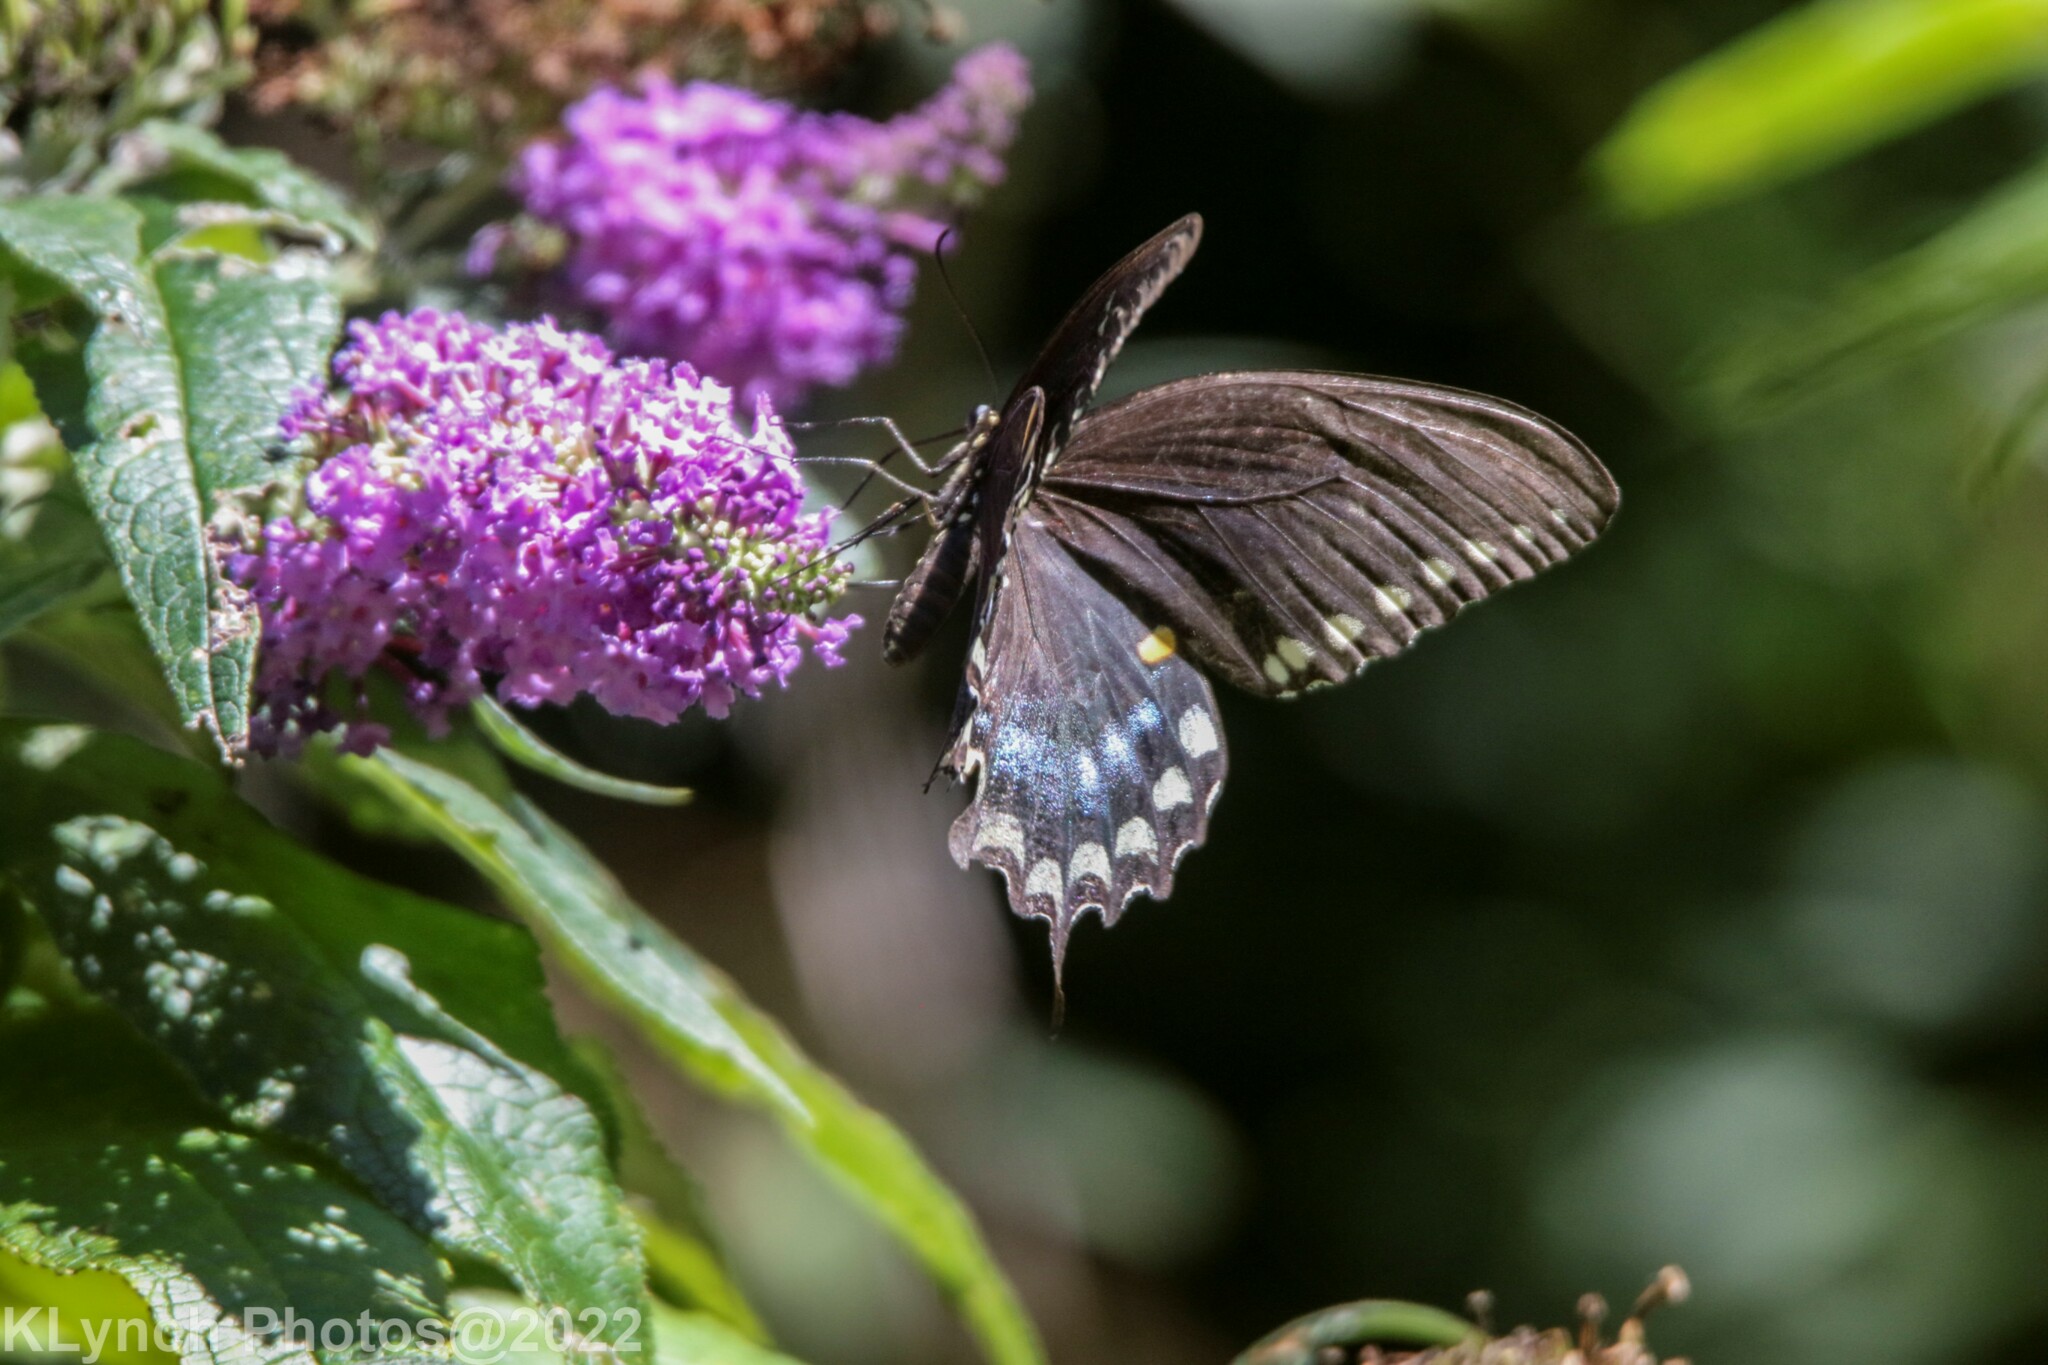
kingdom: Animalia
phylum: Arthropoda
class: Insecta
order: Lepidoptera
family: Papilionidae
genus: Papilio
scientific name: Papilio troilus
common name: Spicebush swallowtail
